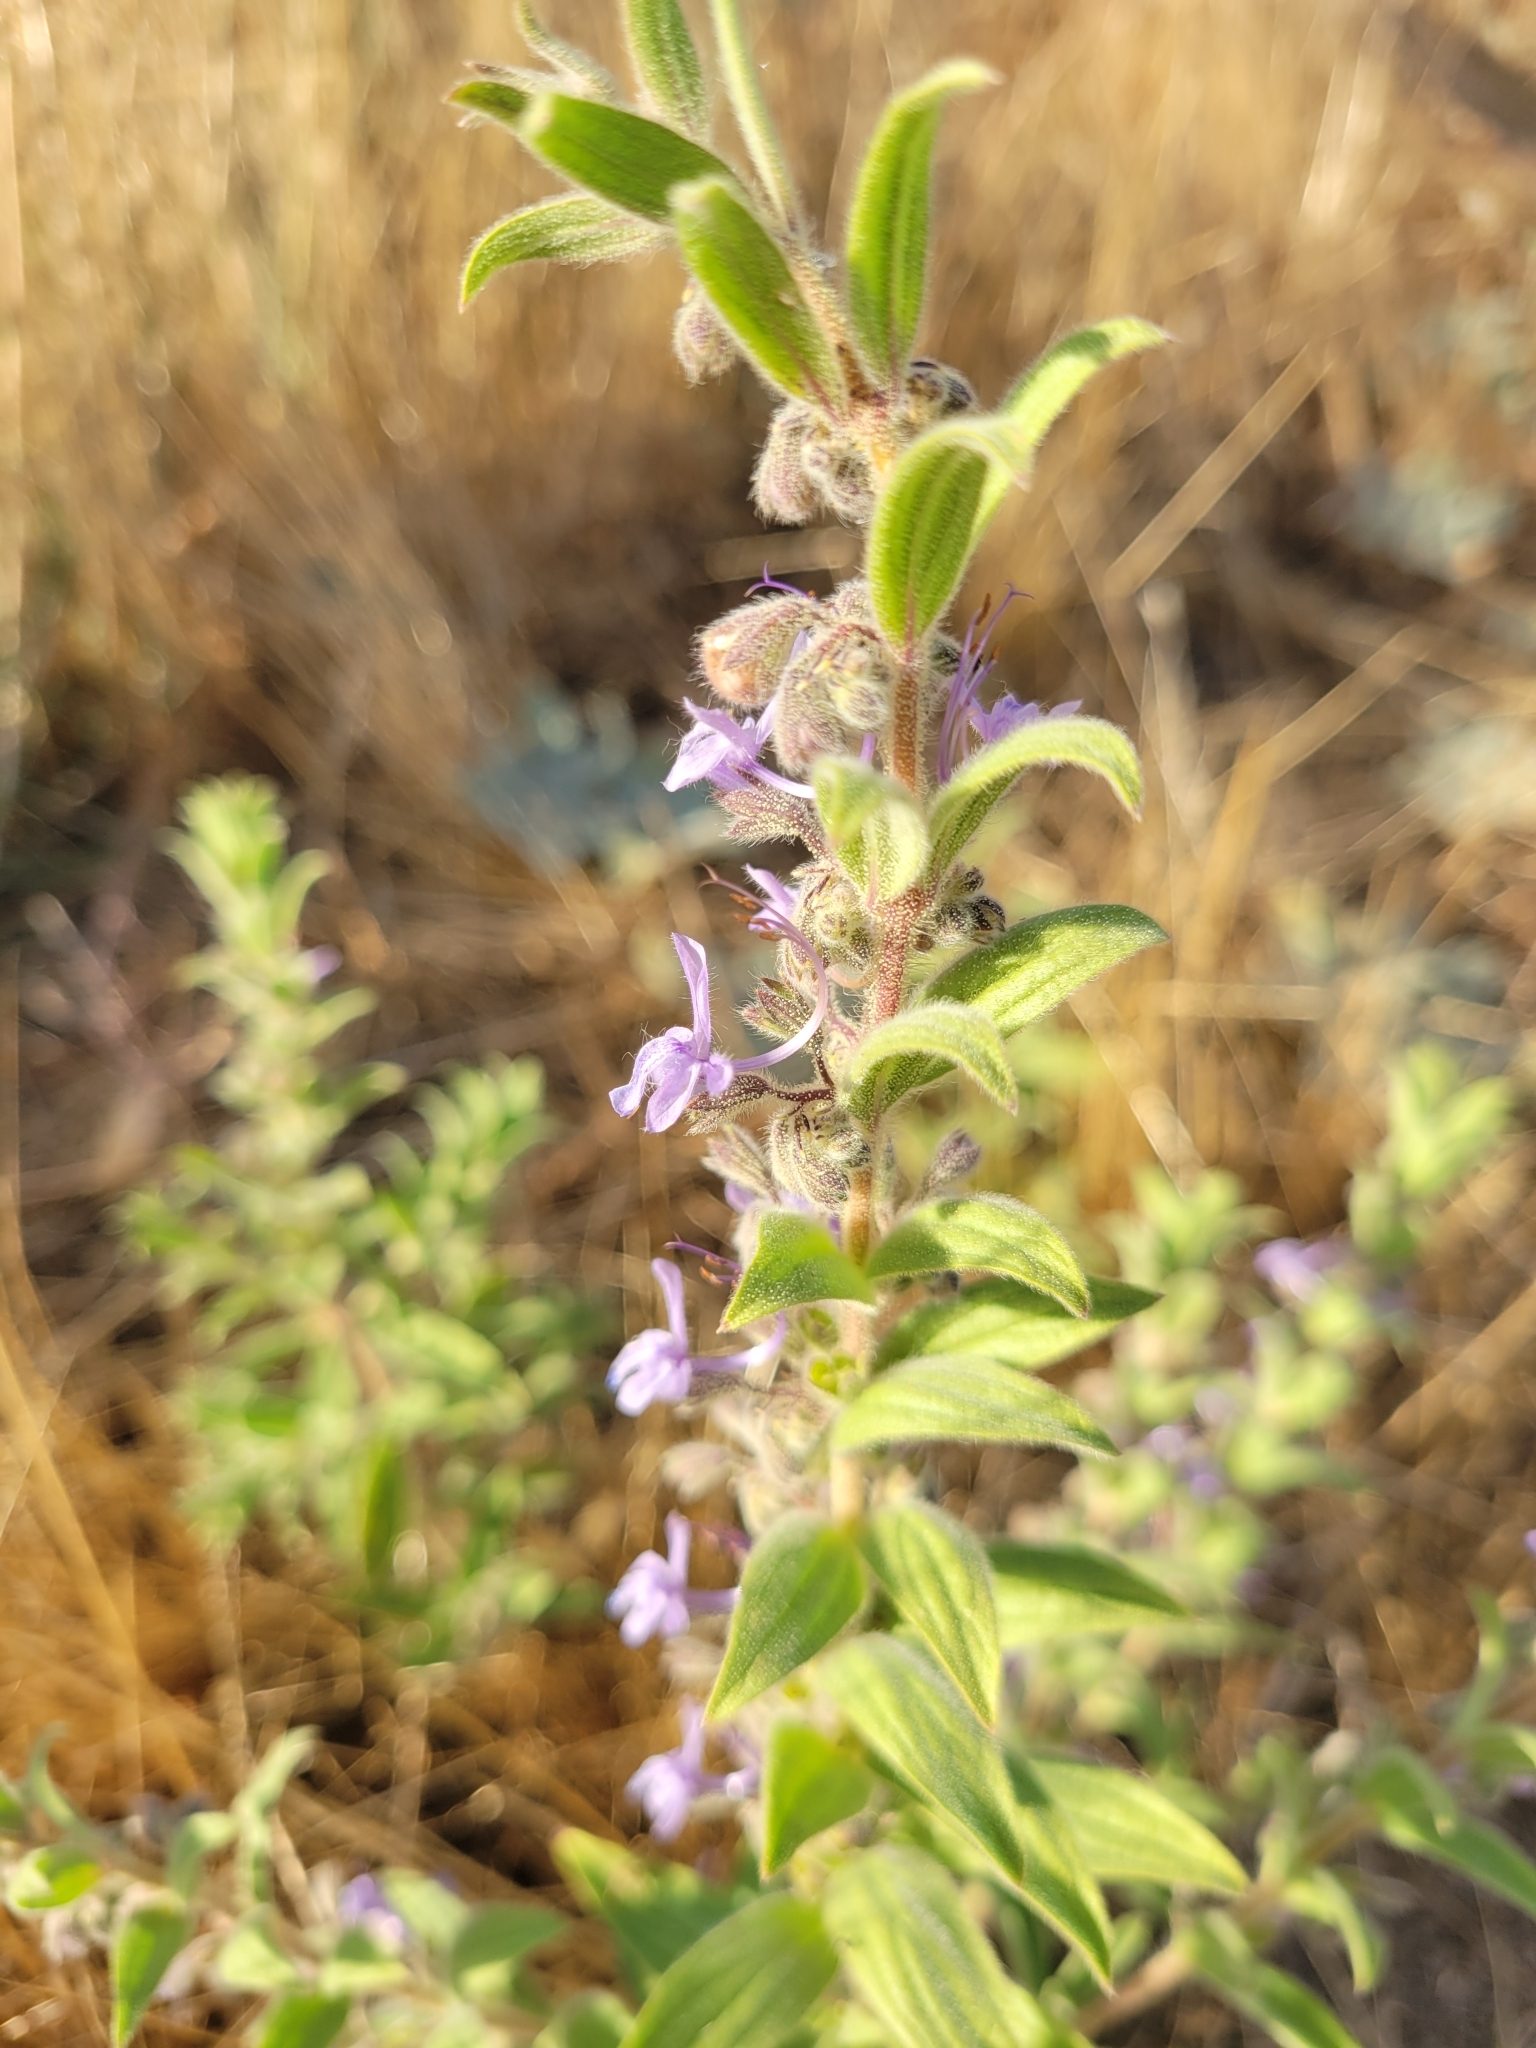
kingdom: Plantae
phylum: Tracheophyta
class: Magnoliopsida
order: Lamiales
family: Lamiaceae
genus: Trichostema
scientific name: Trichostema lanceolatum
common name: Vinegar-weed
